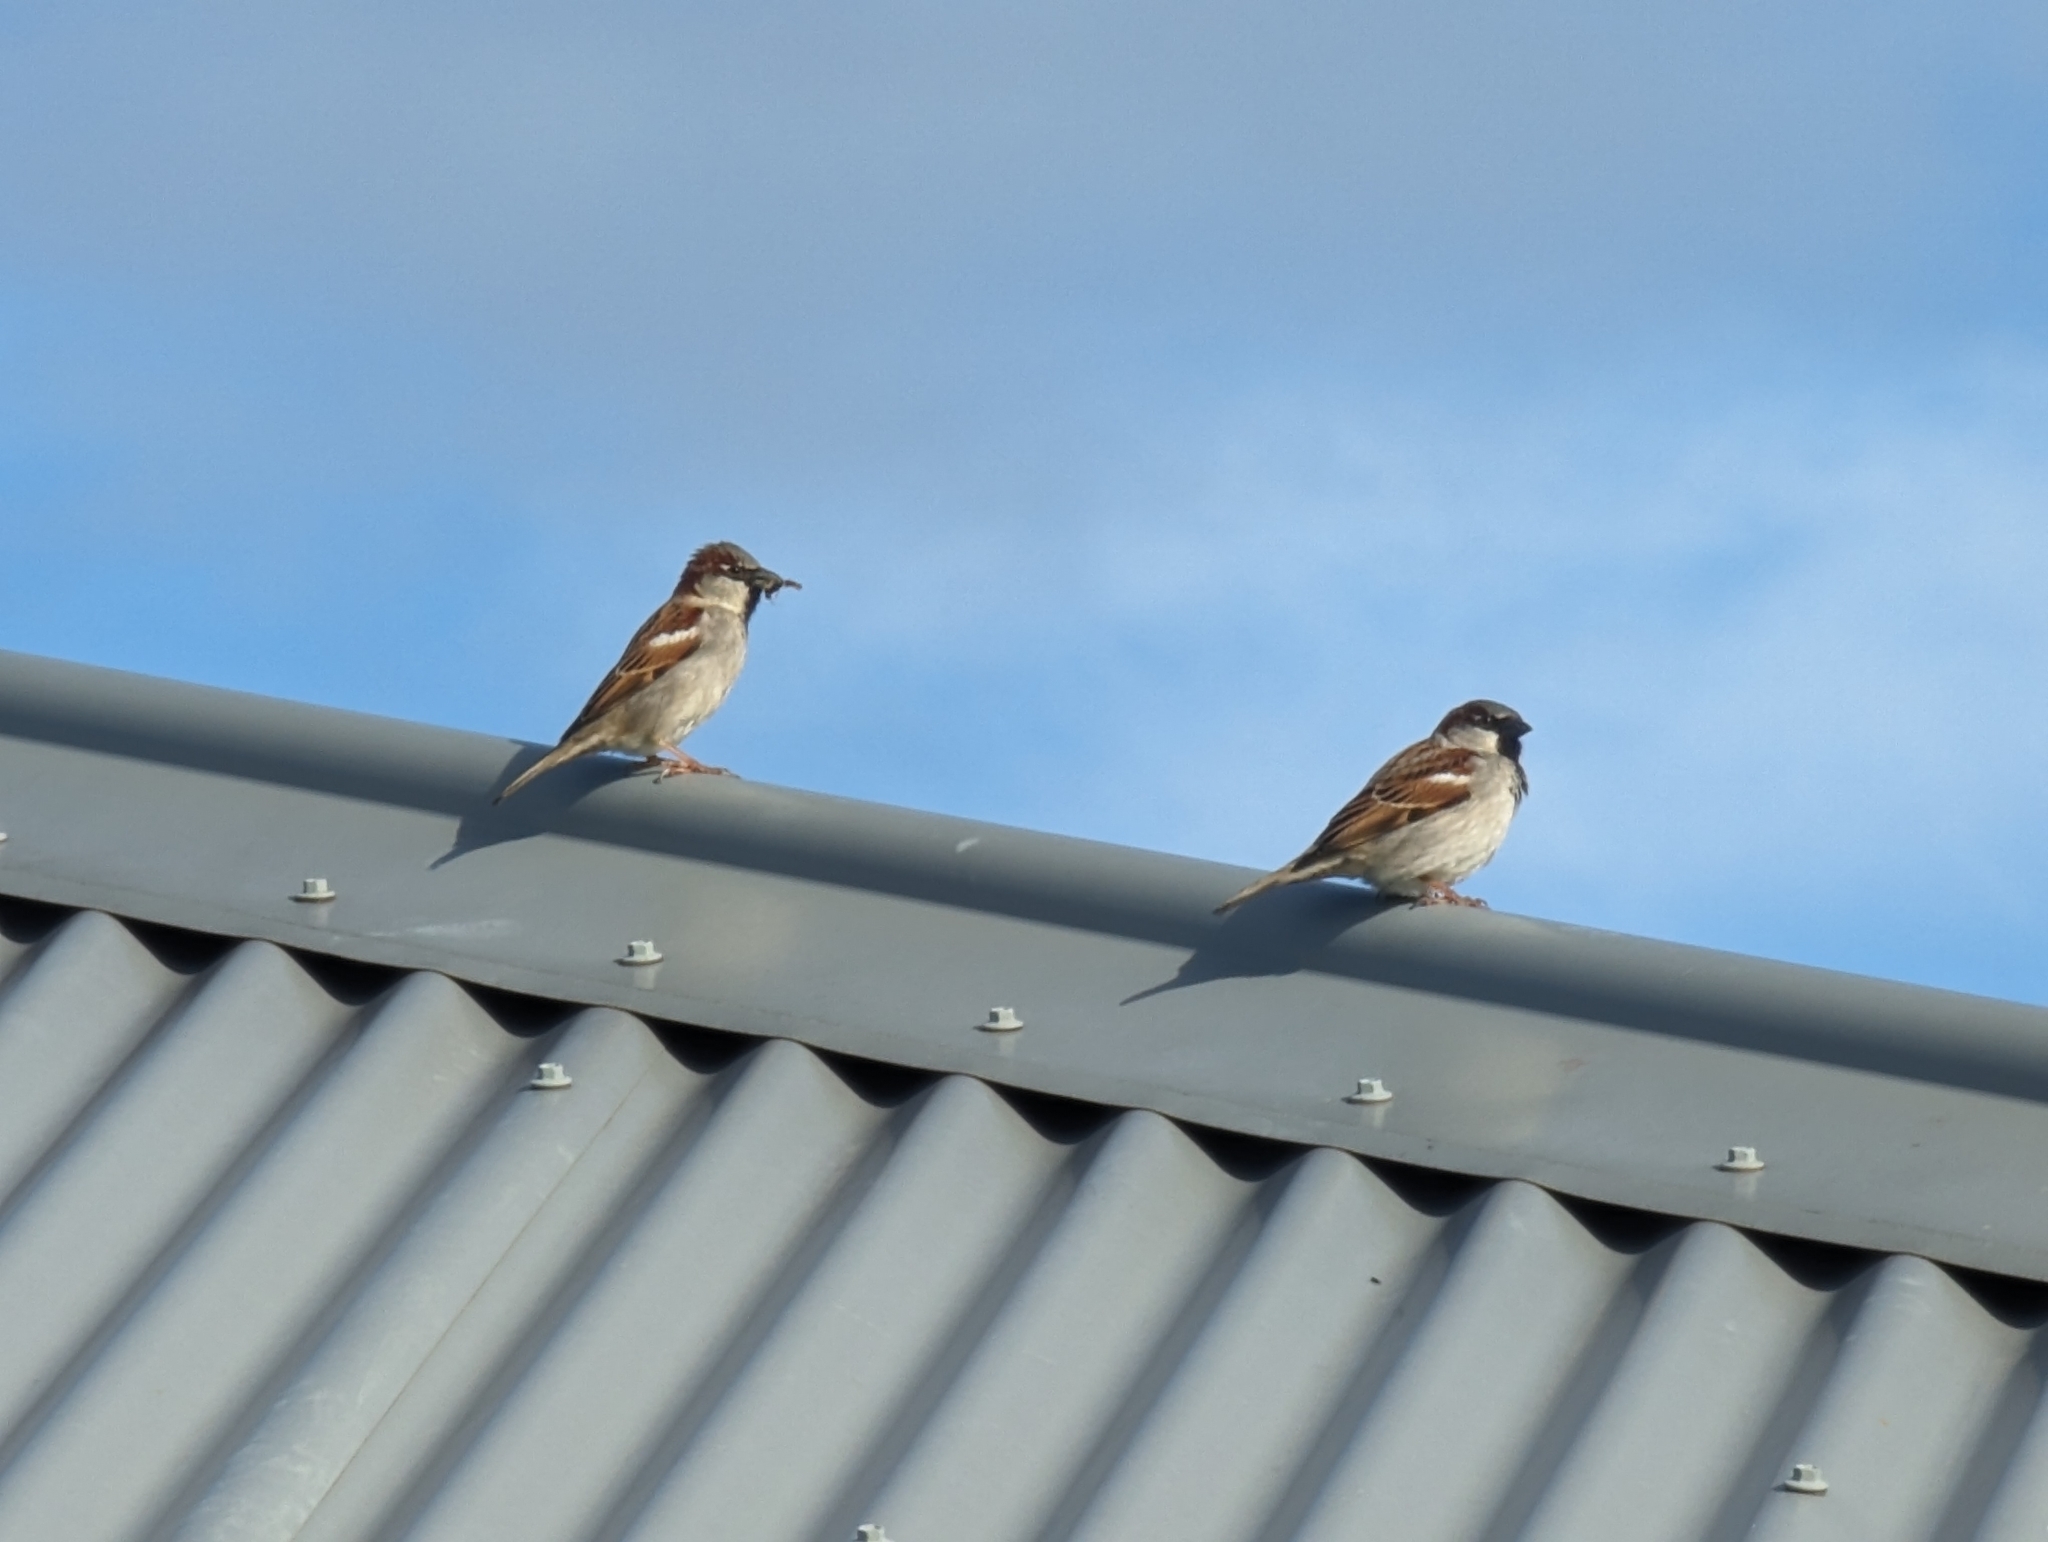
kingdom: Animalia
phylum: Chordata
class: Aves
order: Passeriformes
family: Passeridae
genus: Passer
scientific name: Passer domesticus
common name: House sparrow
